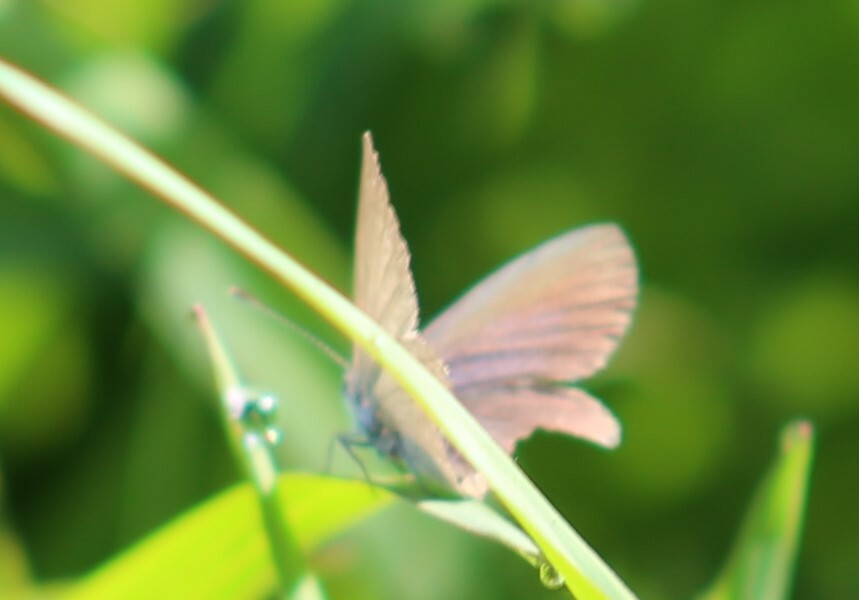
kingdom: Animalia
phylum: Arthropoda
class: Insecta
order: Lepidoptera
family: Lycaenidae
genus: Zizina
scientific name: Zizina labradus
